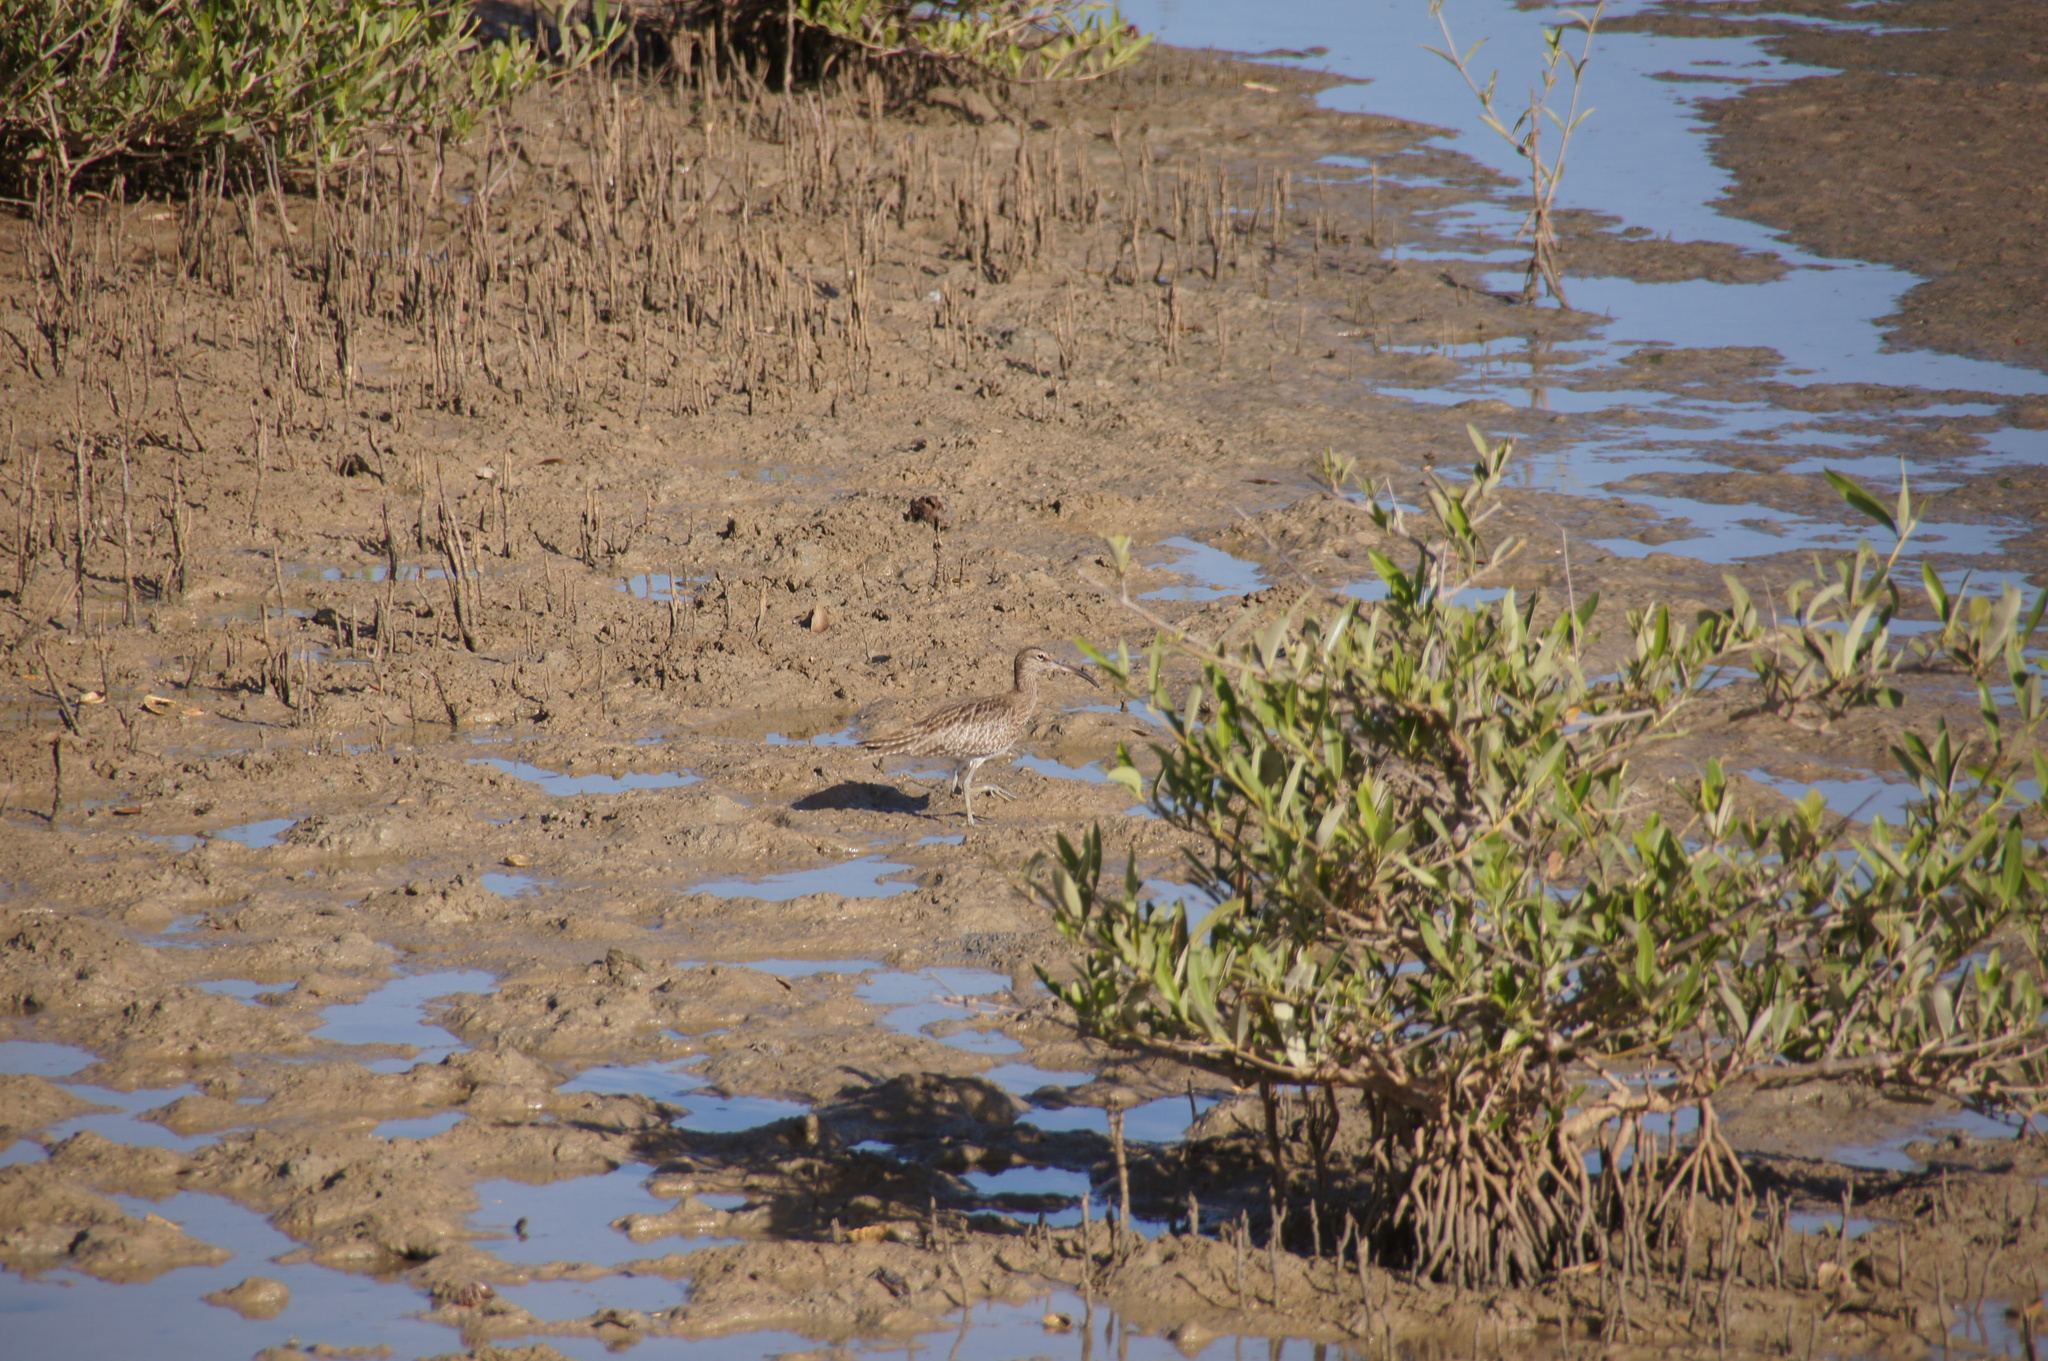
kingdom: Animalia
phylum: Chordata
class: Aves
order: Charadriiformes
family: Scolopacidae
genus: Numenius
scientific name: Numenius phaeopus
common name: Whimbrel
